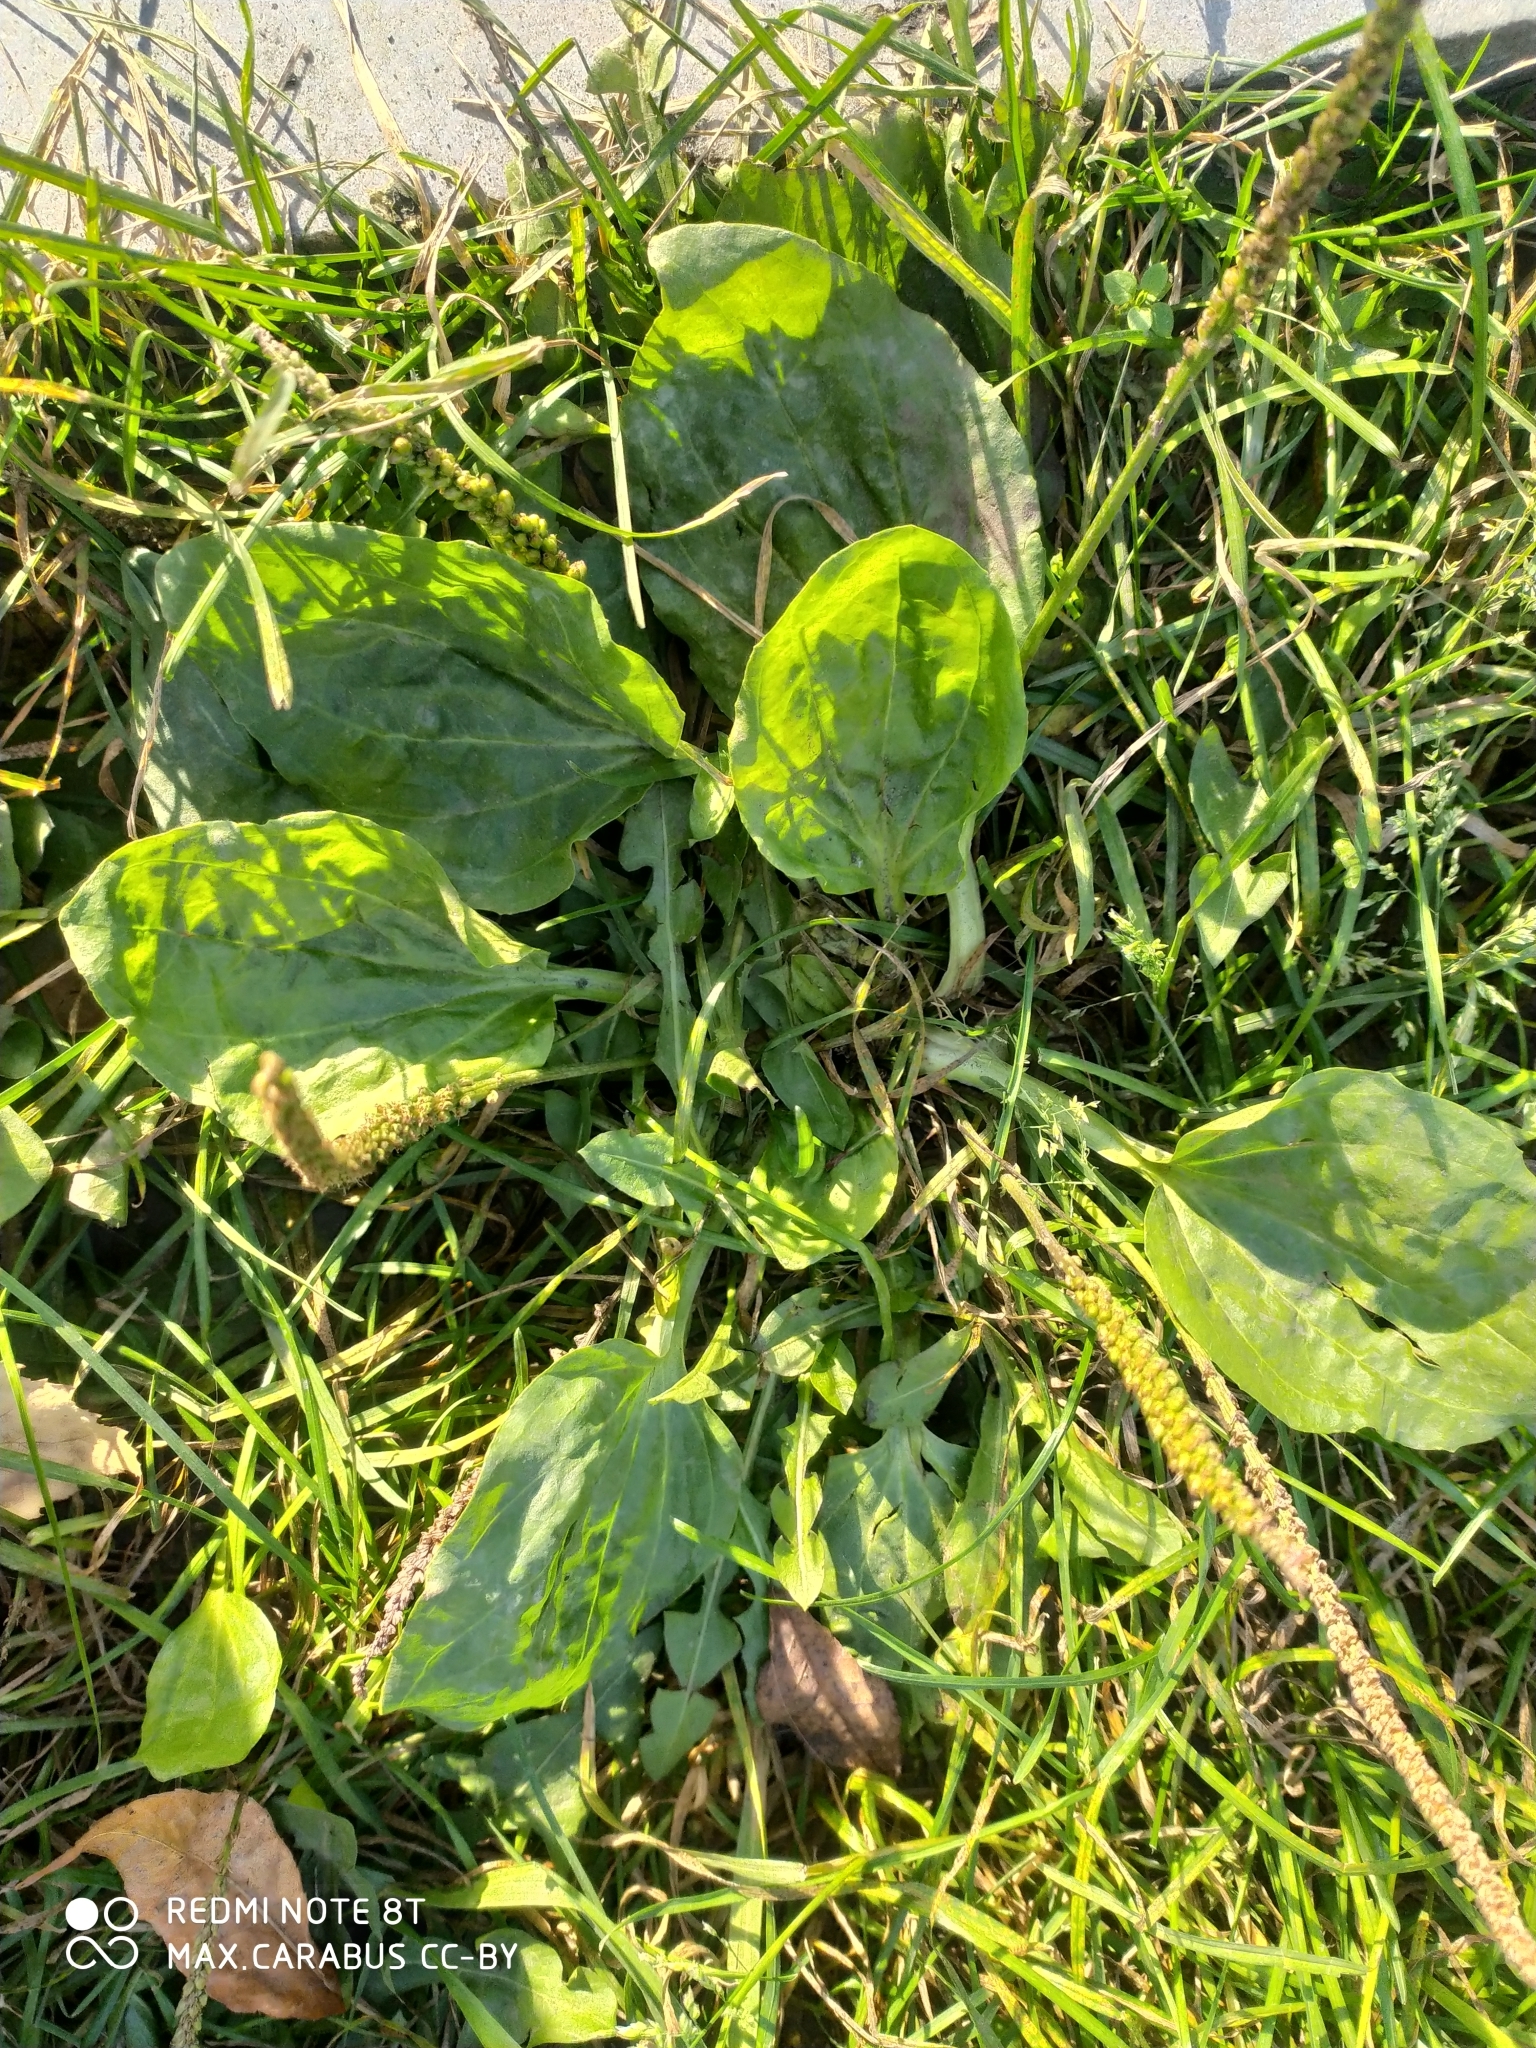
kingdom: Plantae
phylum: Tracheophyta
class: Magnoliopsida
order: Lamiales
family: Plantaginaceae
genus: Plantago
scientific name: Plantago major
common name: Common plantain
